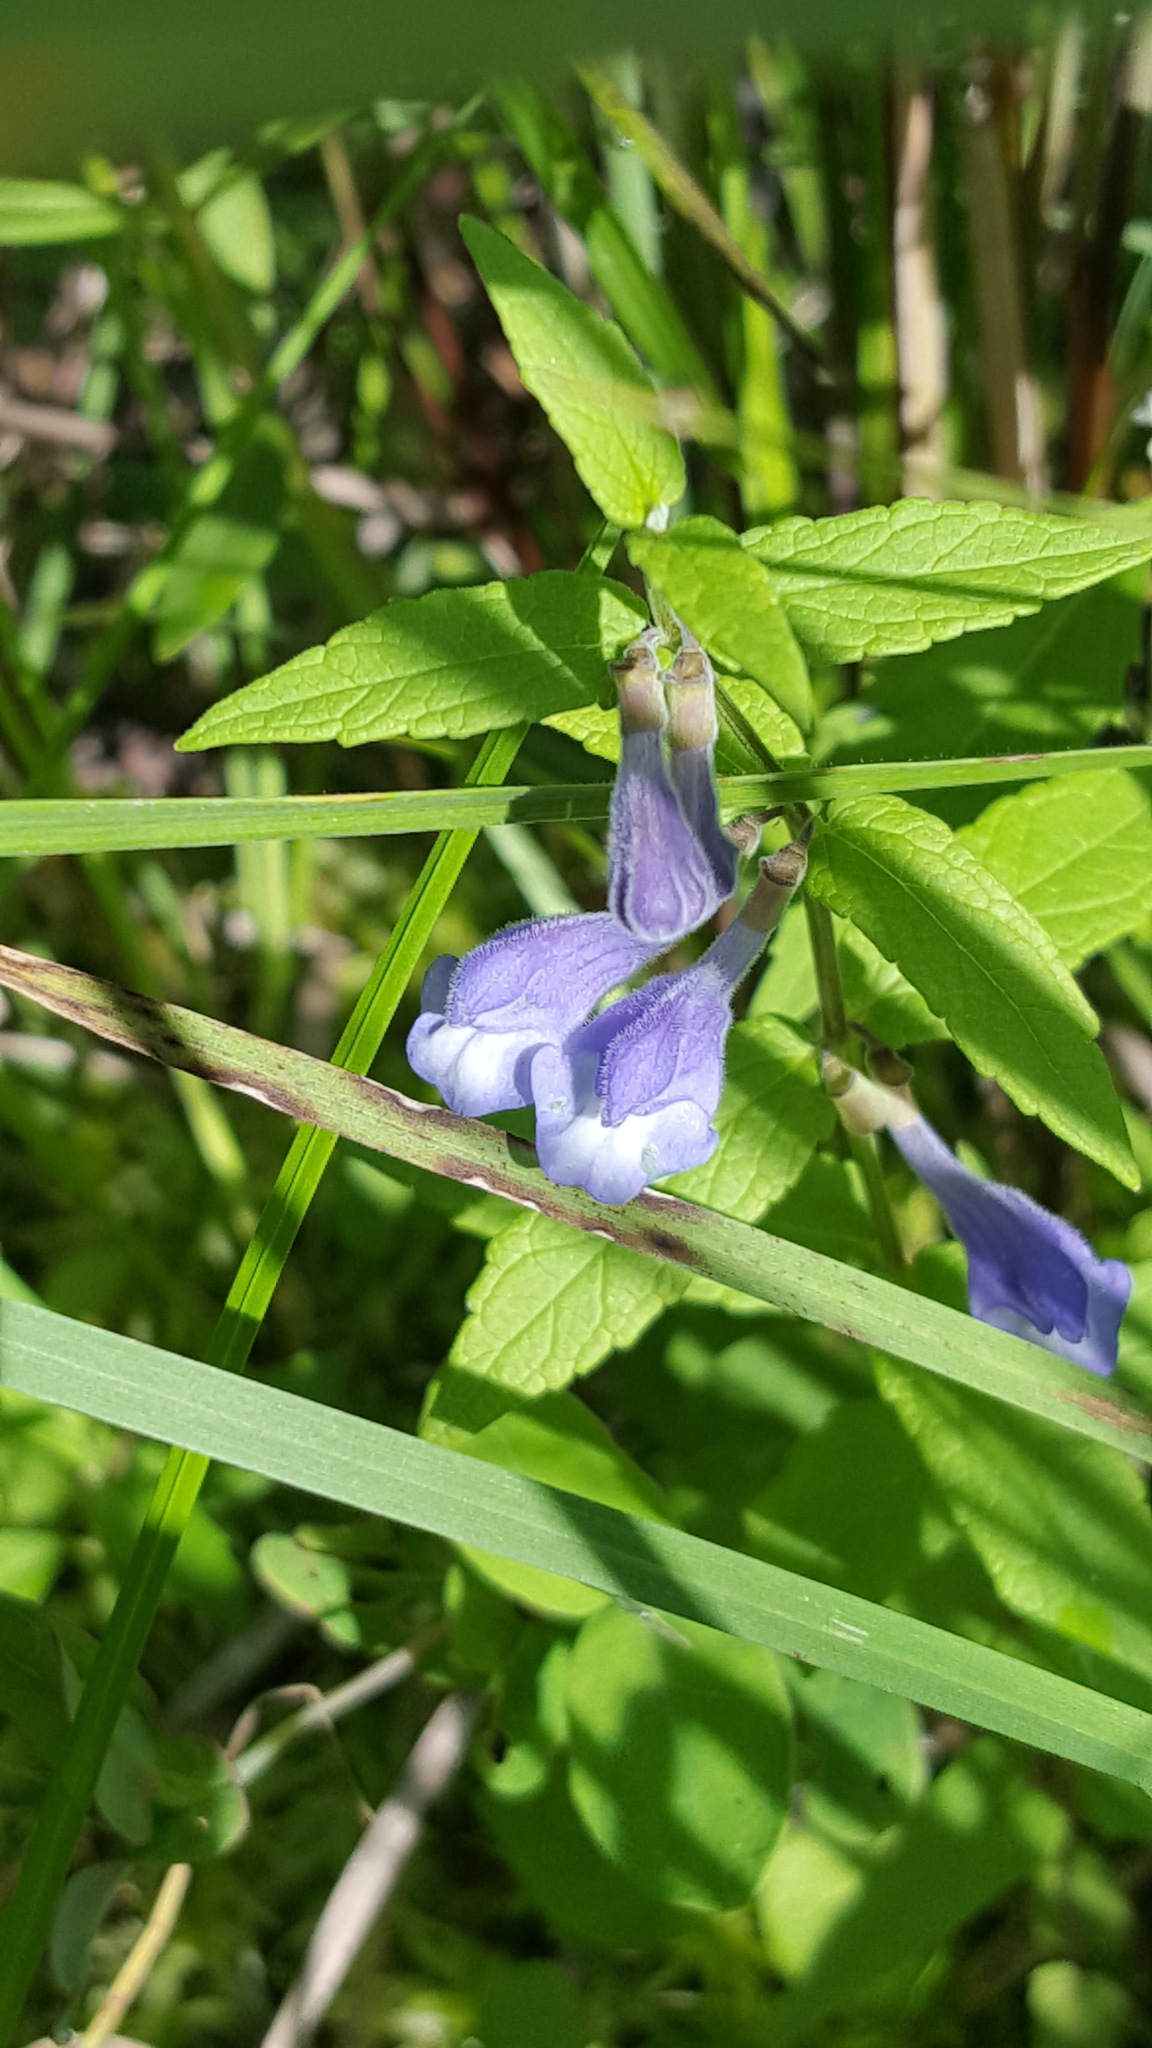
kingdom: Plantae
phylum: Tracheophyta
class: Magnoliopsida
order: Lamiales
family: Lamiaceae
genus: Scutellaria
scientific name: Scutellaria galericulata
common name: Skullcap
